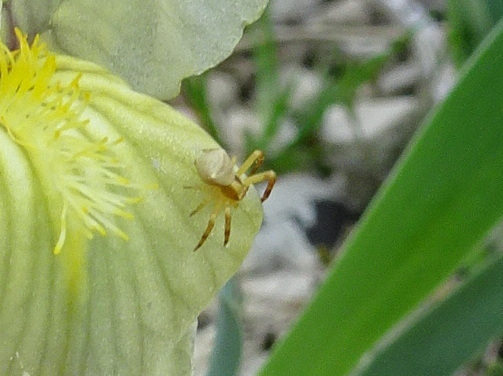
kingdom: Animalia
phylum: Arthropoda
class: Arachnida
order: Araneae
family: Thomisidae
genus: Thomisus
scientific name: Thomisus onustus
